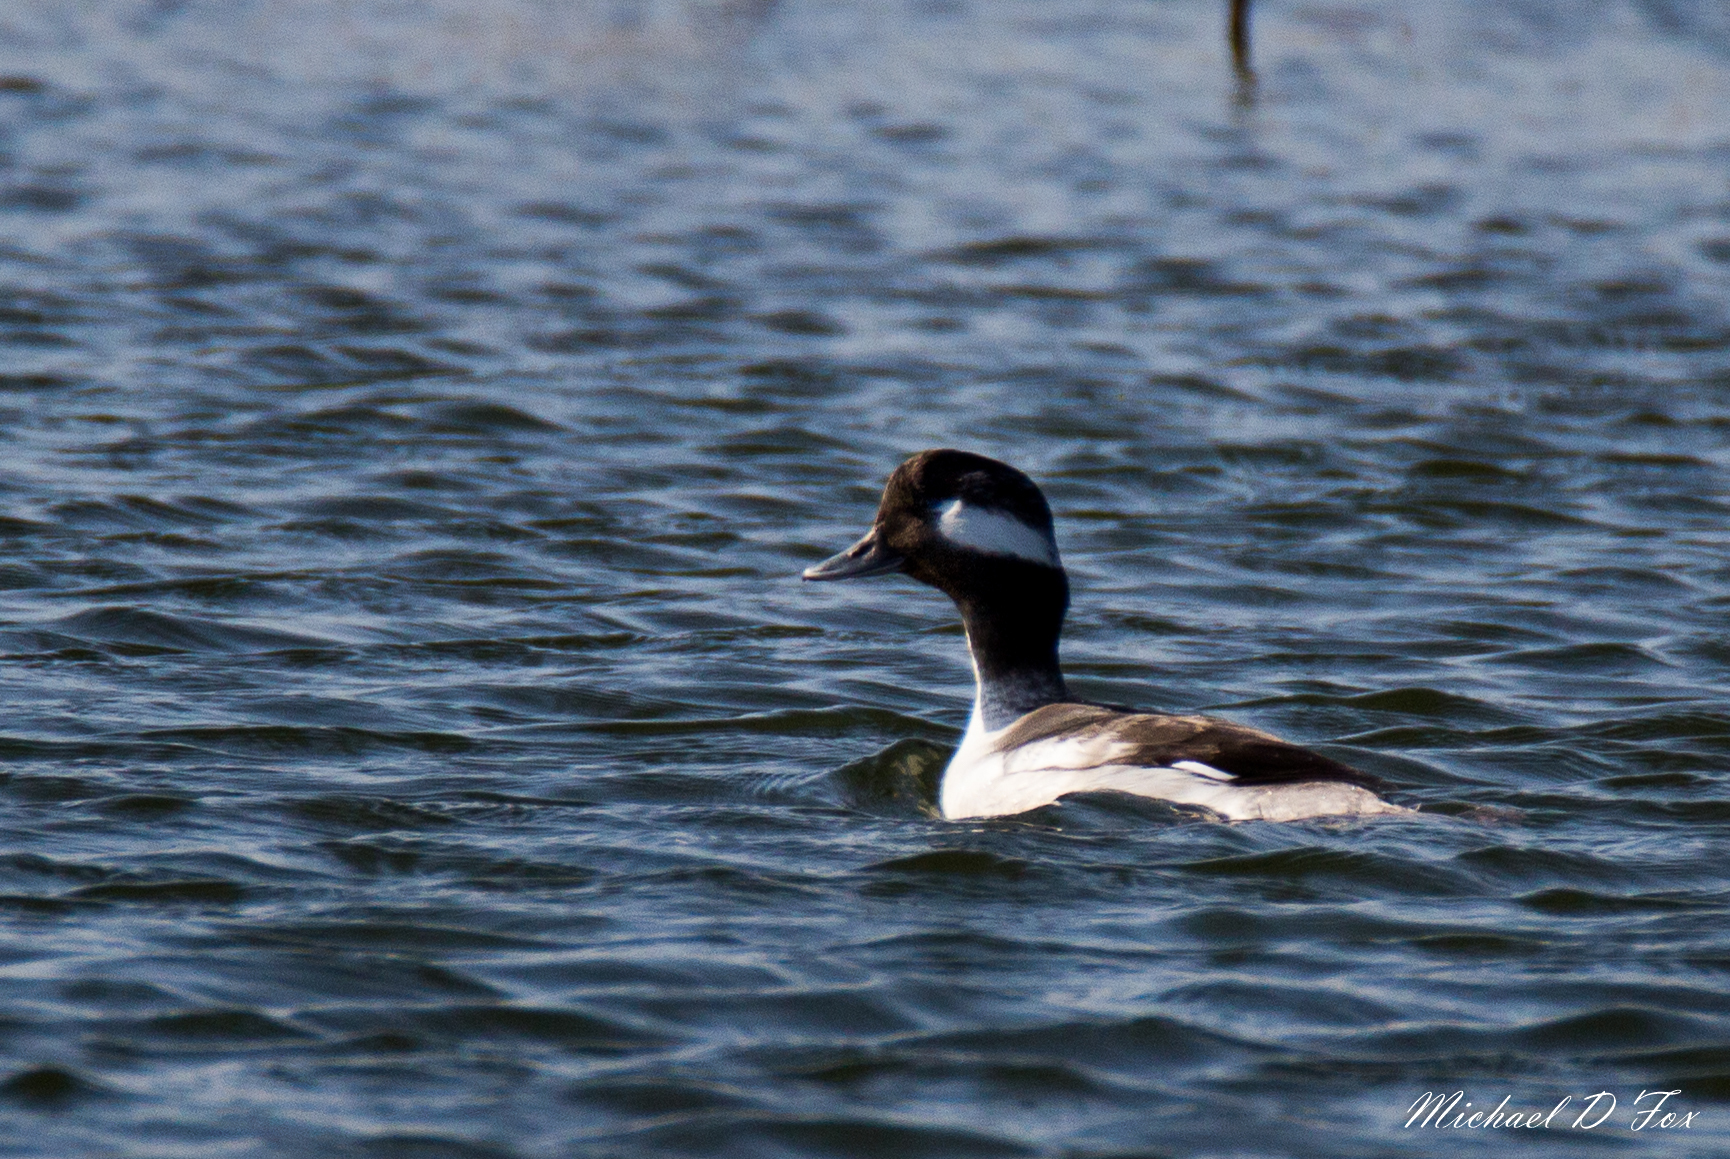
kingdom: Animalia
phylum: Chordata
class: Aves
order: Anseriformes
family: Anatidae
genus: Bucephala
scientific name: Bucephala albeola
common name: Bufflehead
